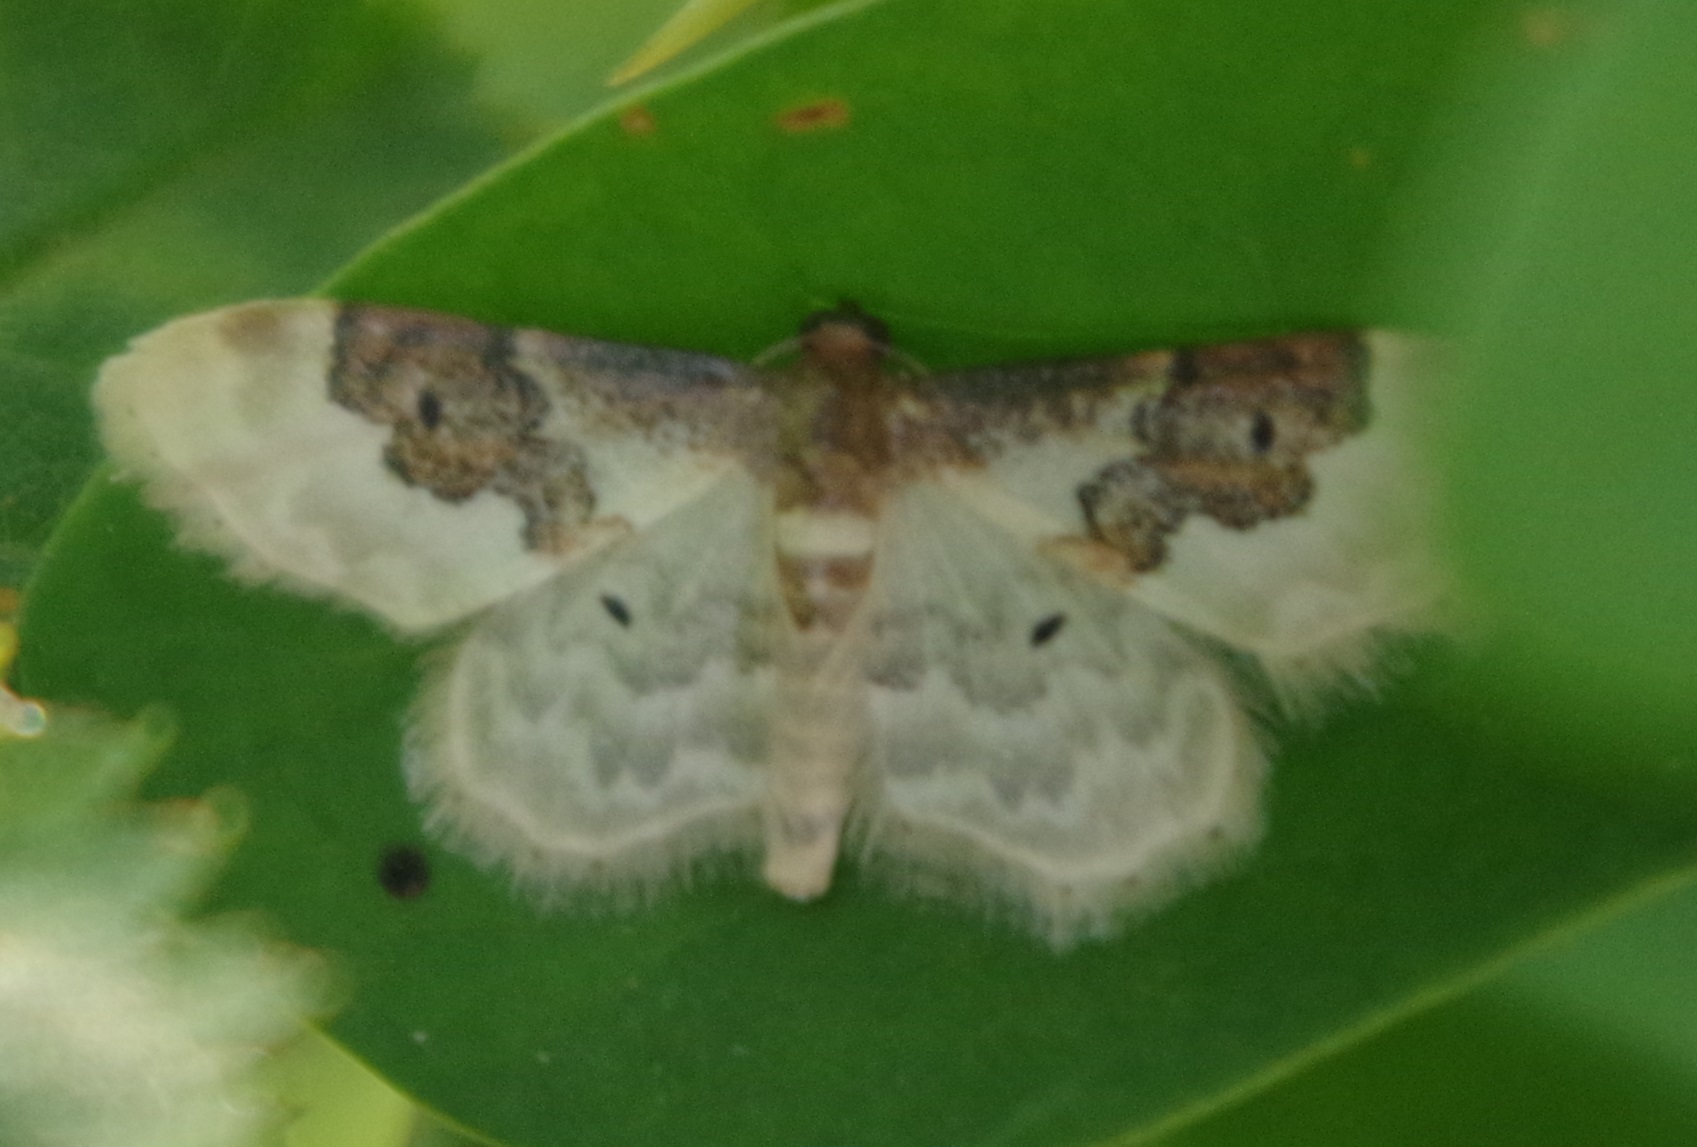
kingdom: Animalia
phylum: Arthropoda
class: Insecta
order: Lepidoptera
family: Geometridae
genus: Idaea
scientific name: Idaea rusticata
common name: Least carpet
